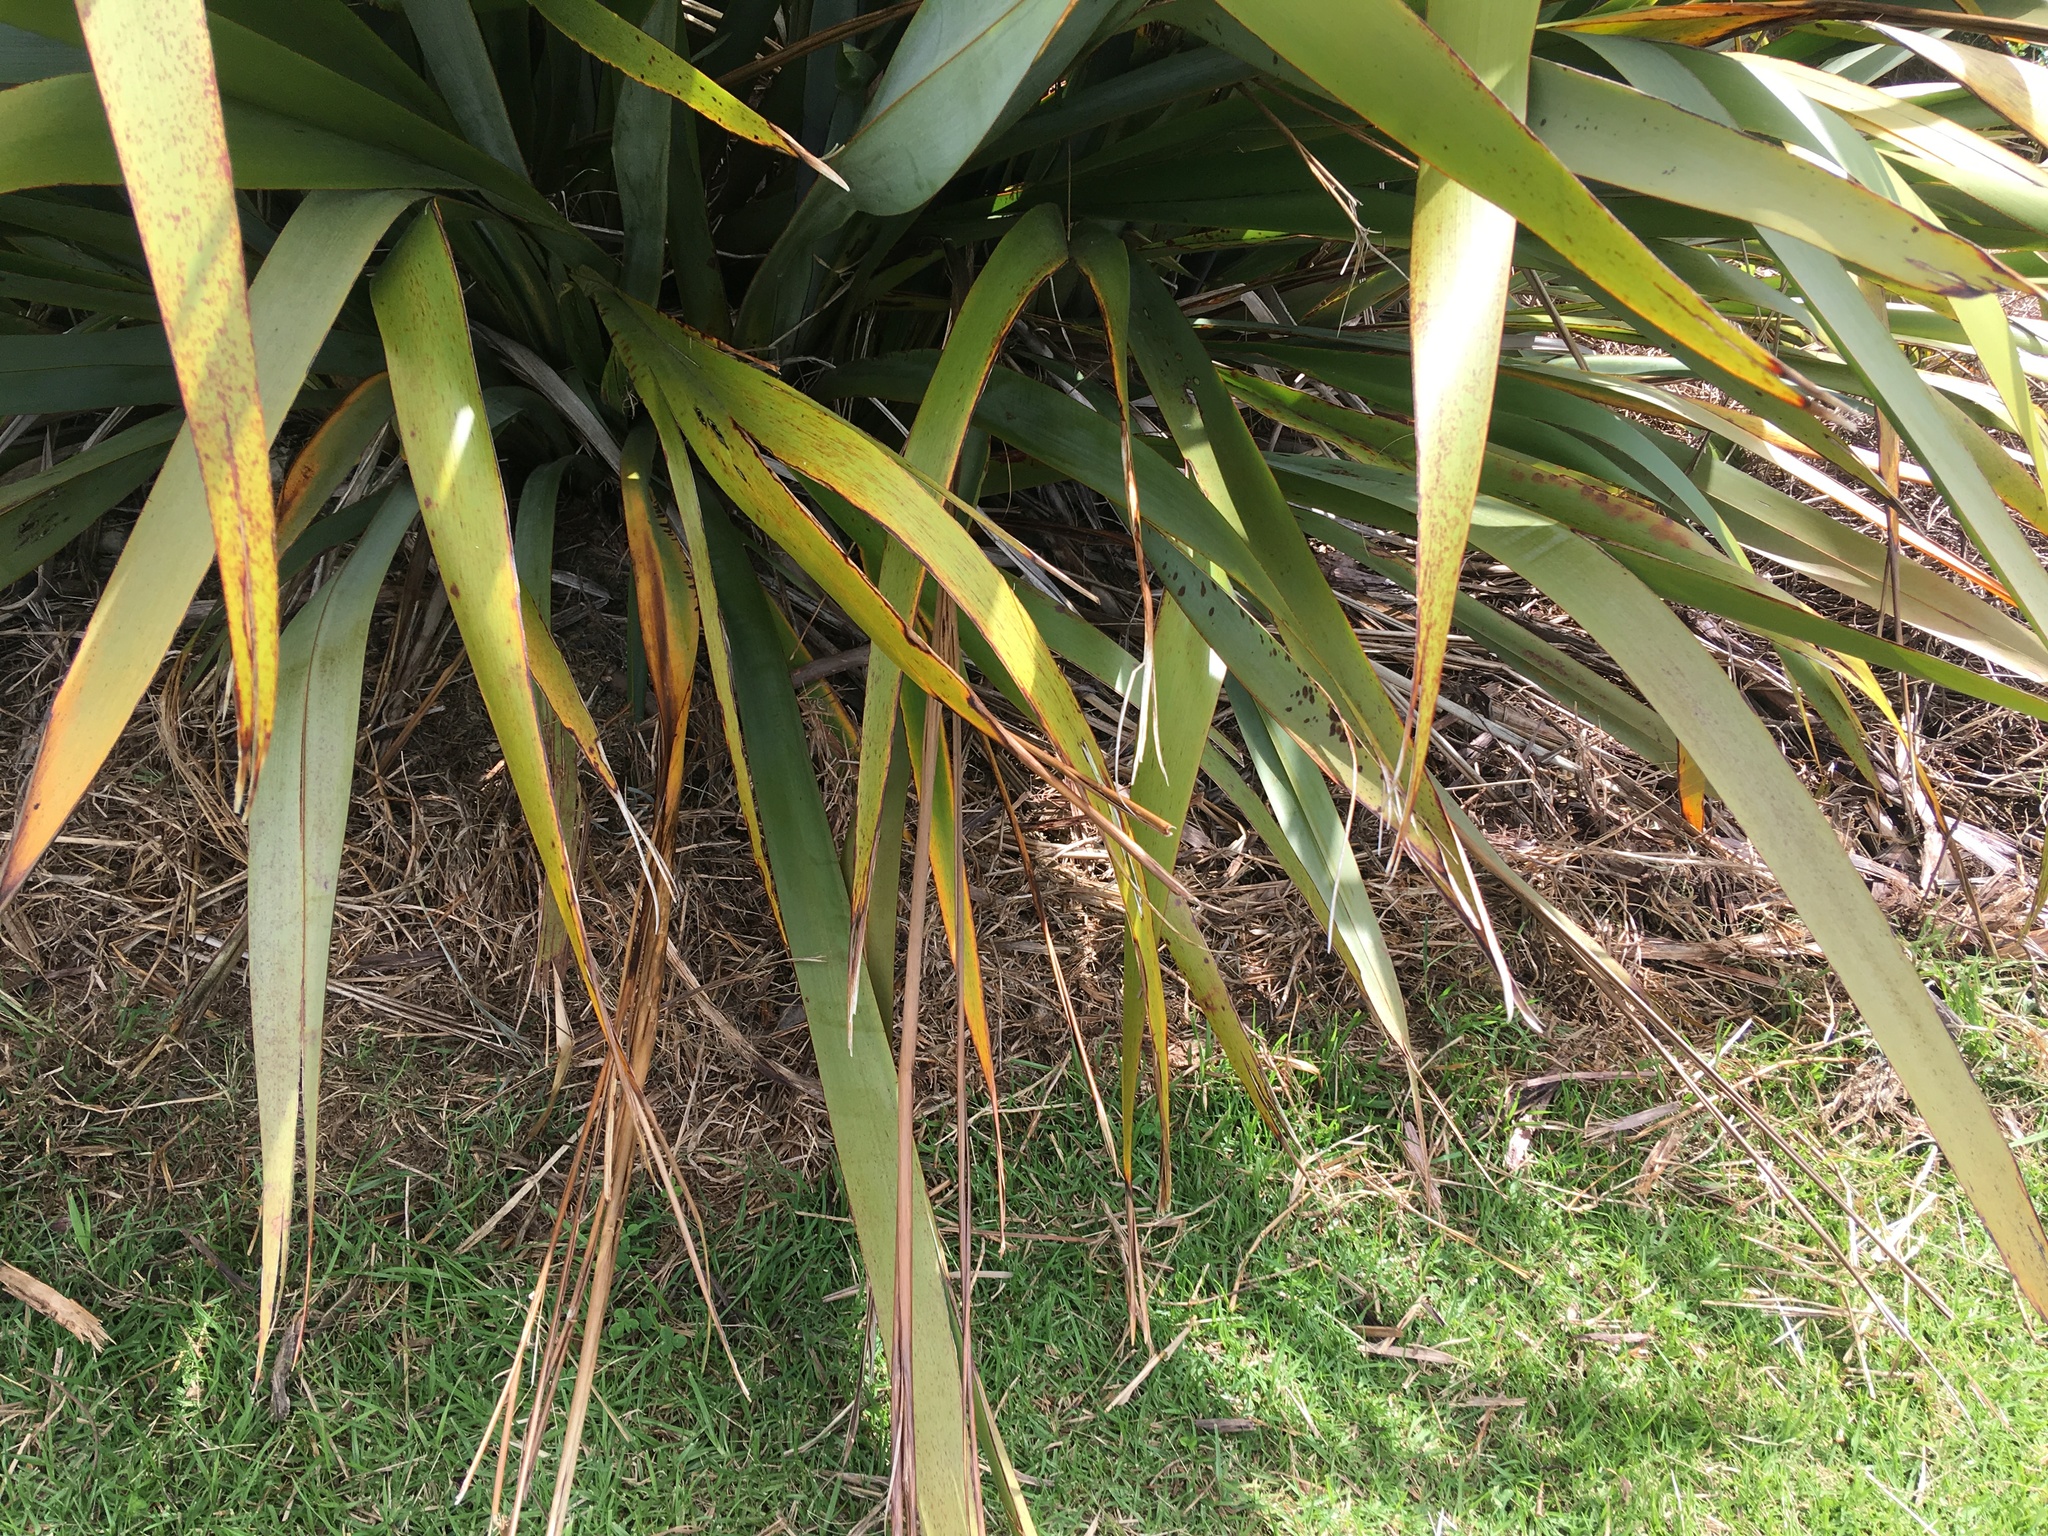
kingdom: Plantae
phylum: Tracheophyta
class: Liliopsida
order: Poales
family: Poaceae
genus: Cenchrus
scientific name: Cenchrus clandestinus
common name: Kikuyugrass
